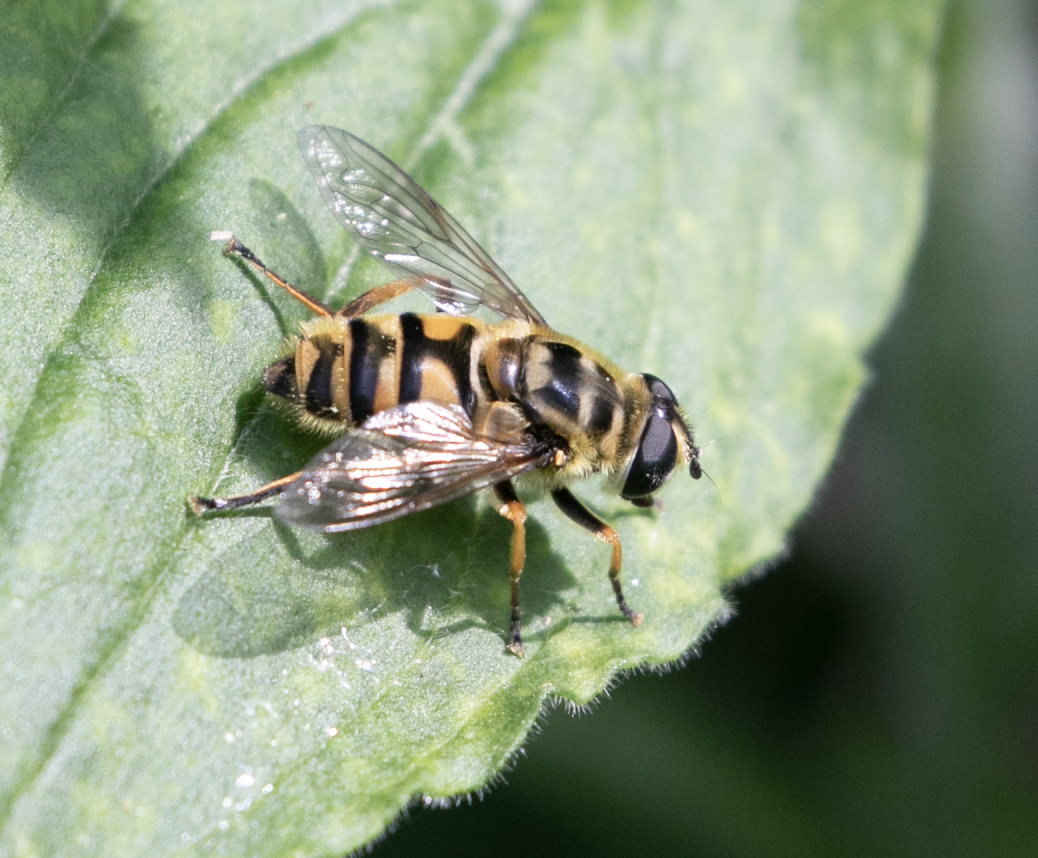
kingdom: Animalia
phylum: Arthropoda
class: Insecta
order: Diptera
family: Syrphidae
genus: Myathropa
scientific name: Myathropa florea
